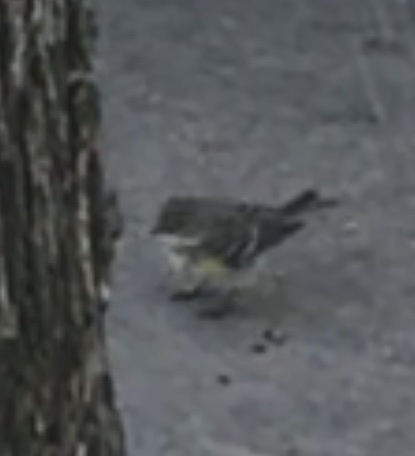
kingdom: Animalia
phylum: Chordata
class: Aves
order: Passeriformes
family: Parulidae
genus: Setophaga
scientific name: Setophaga coronata
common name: Myrtle warbler
